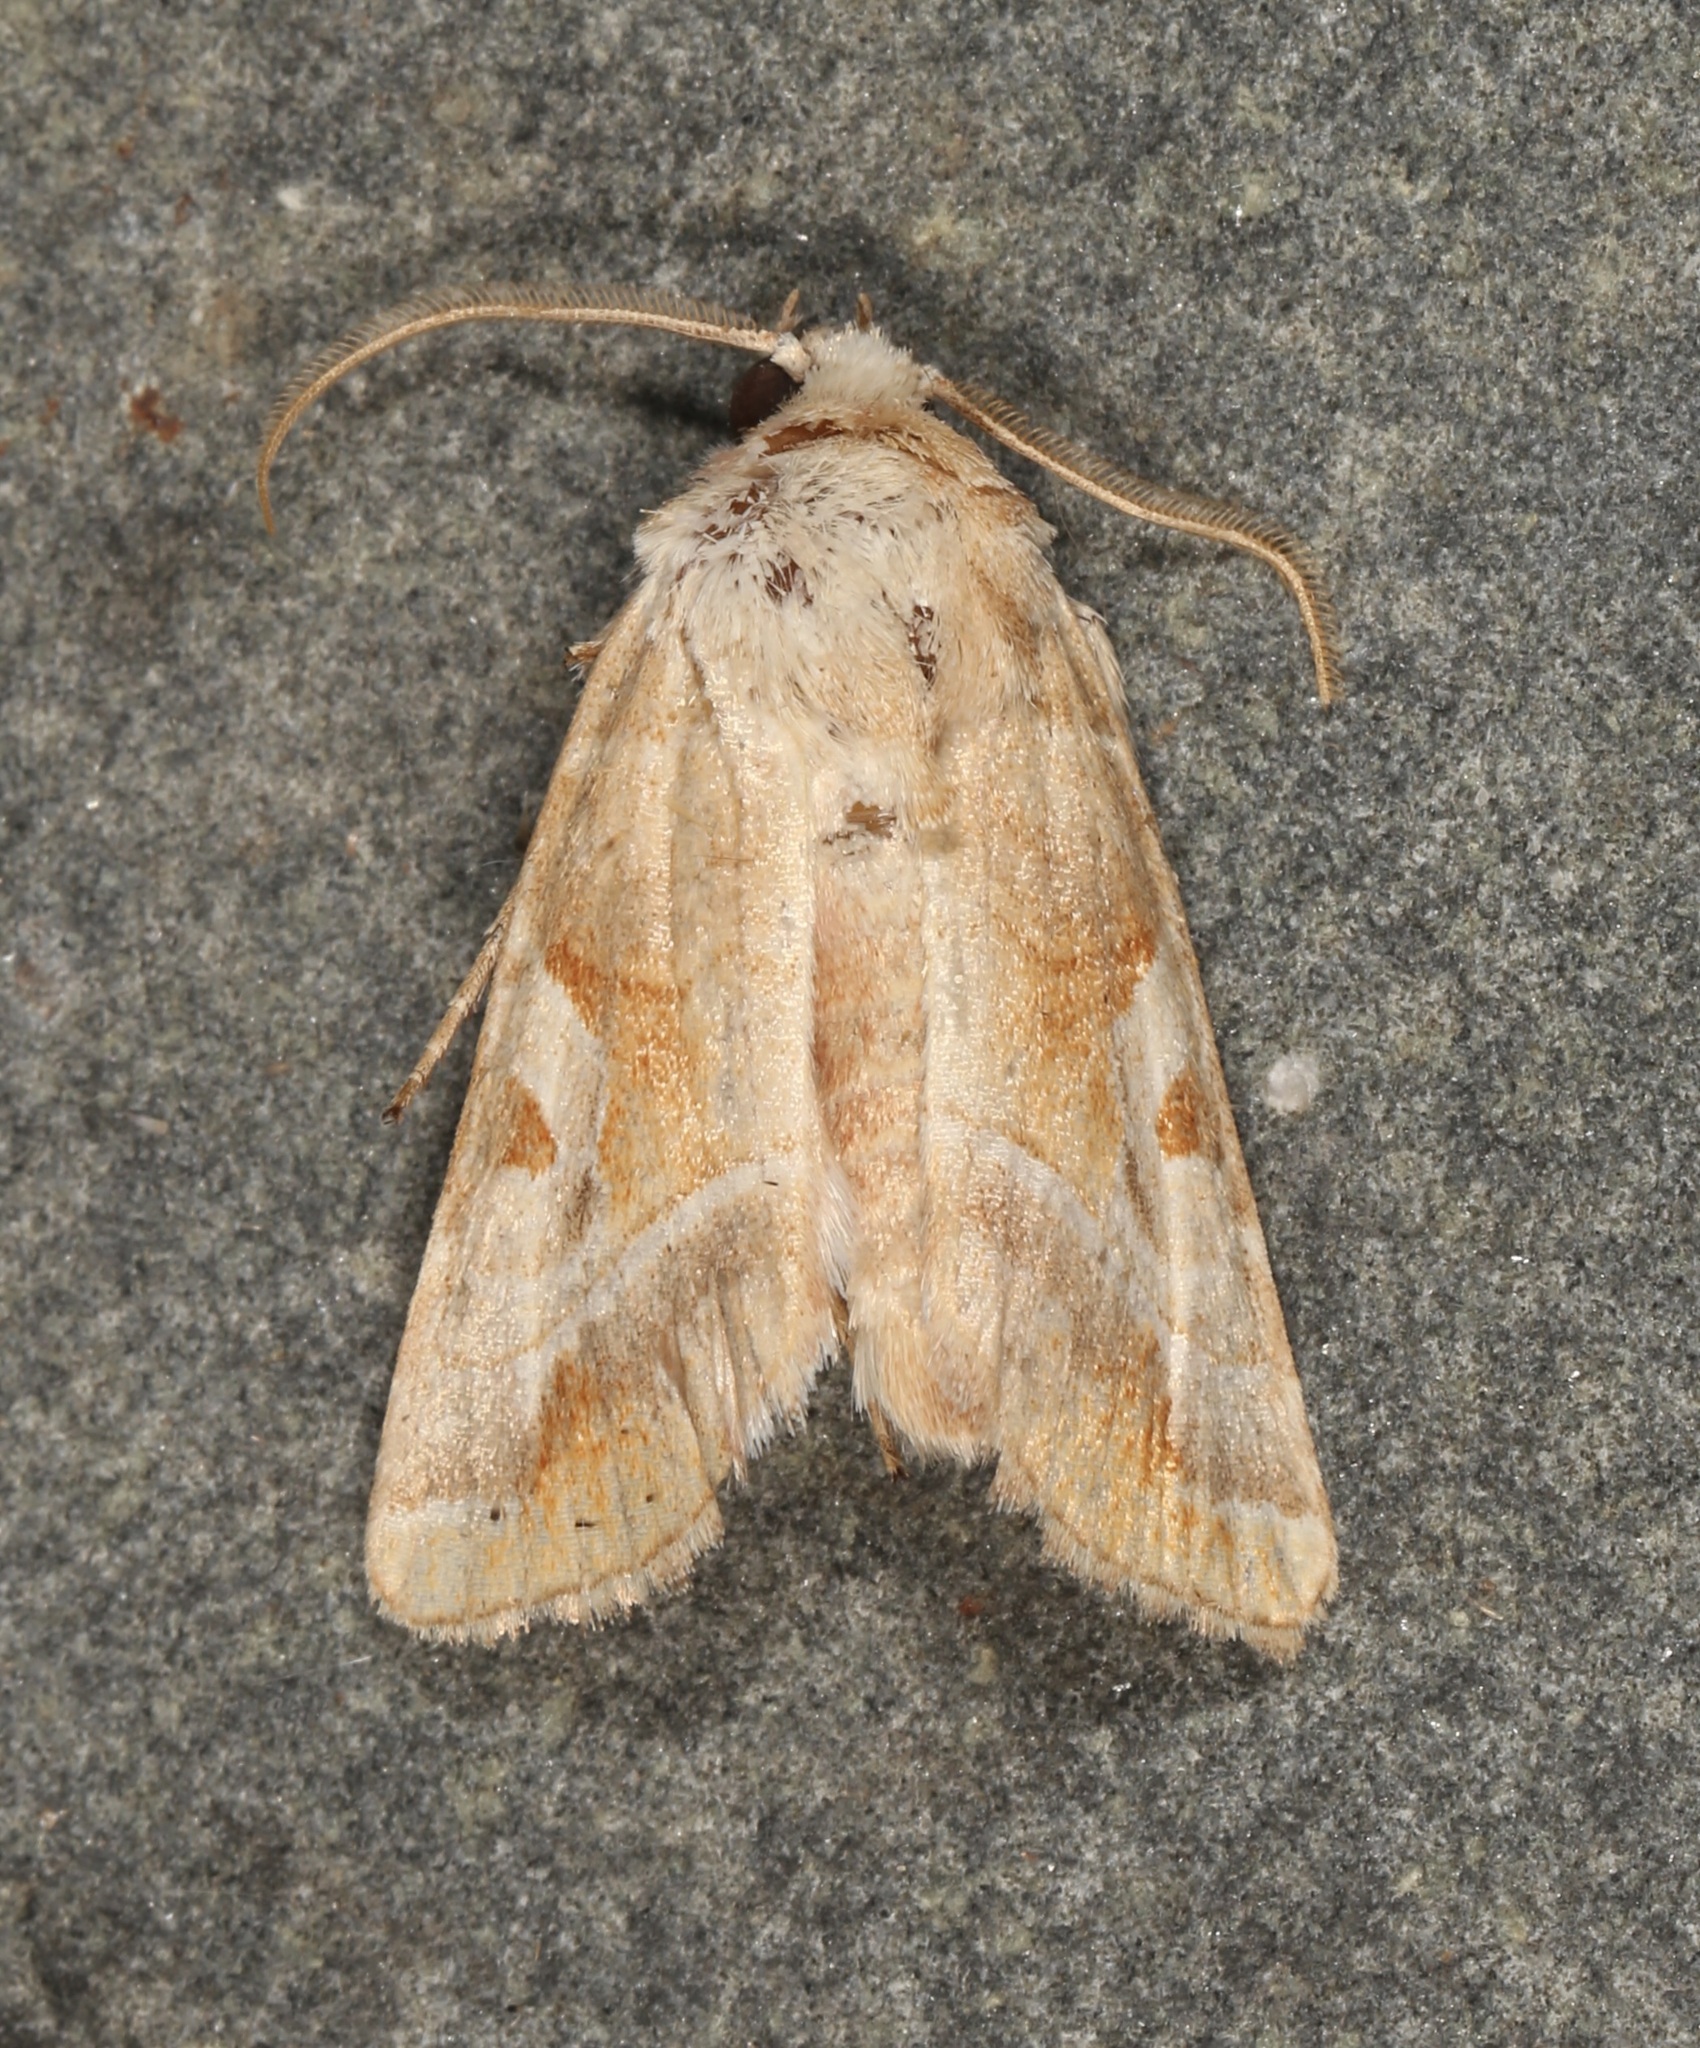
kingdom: Animalia
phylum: Arthropoda
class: Insecta
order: Lepidoptera
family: Noctuidae
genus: Hexorthodes
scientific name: Hexorthodes accurata
